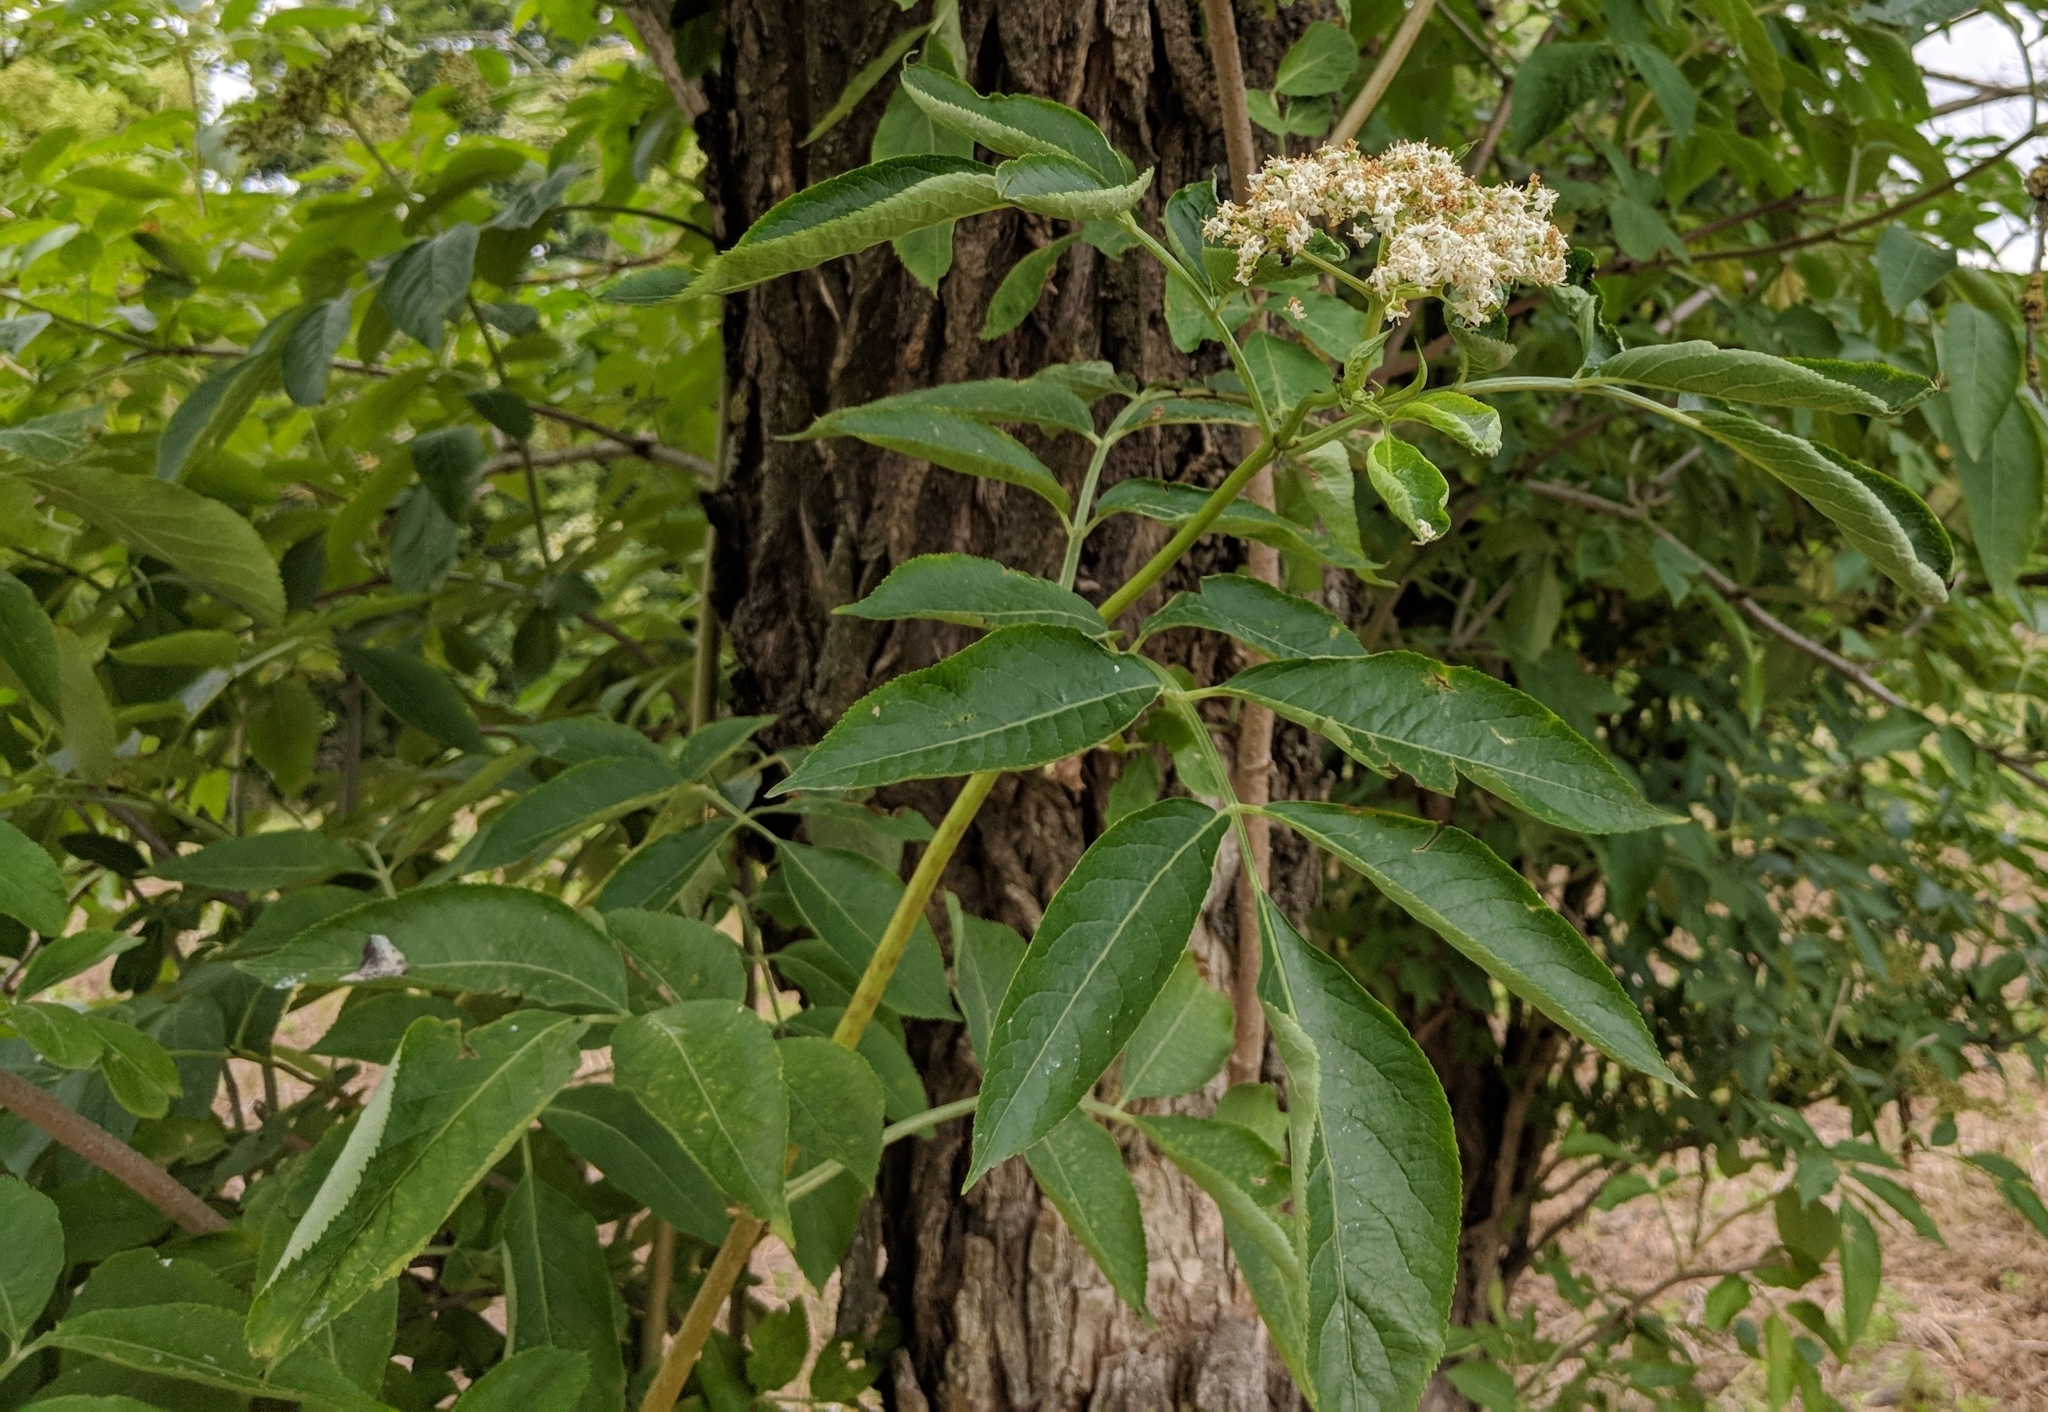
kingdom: Plantae
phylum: Tracheophyta
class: Magnoliopsida
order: Dipsacales
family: Viburnaceae
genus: Sambucus
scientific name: Sambucus nigra
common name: Elder
